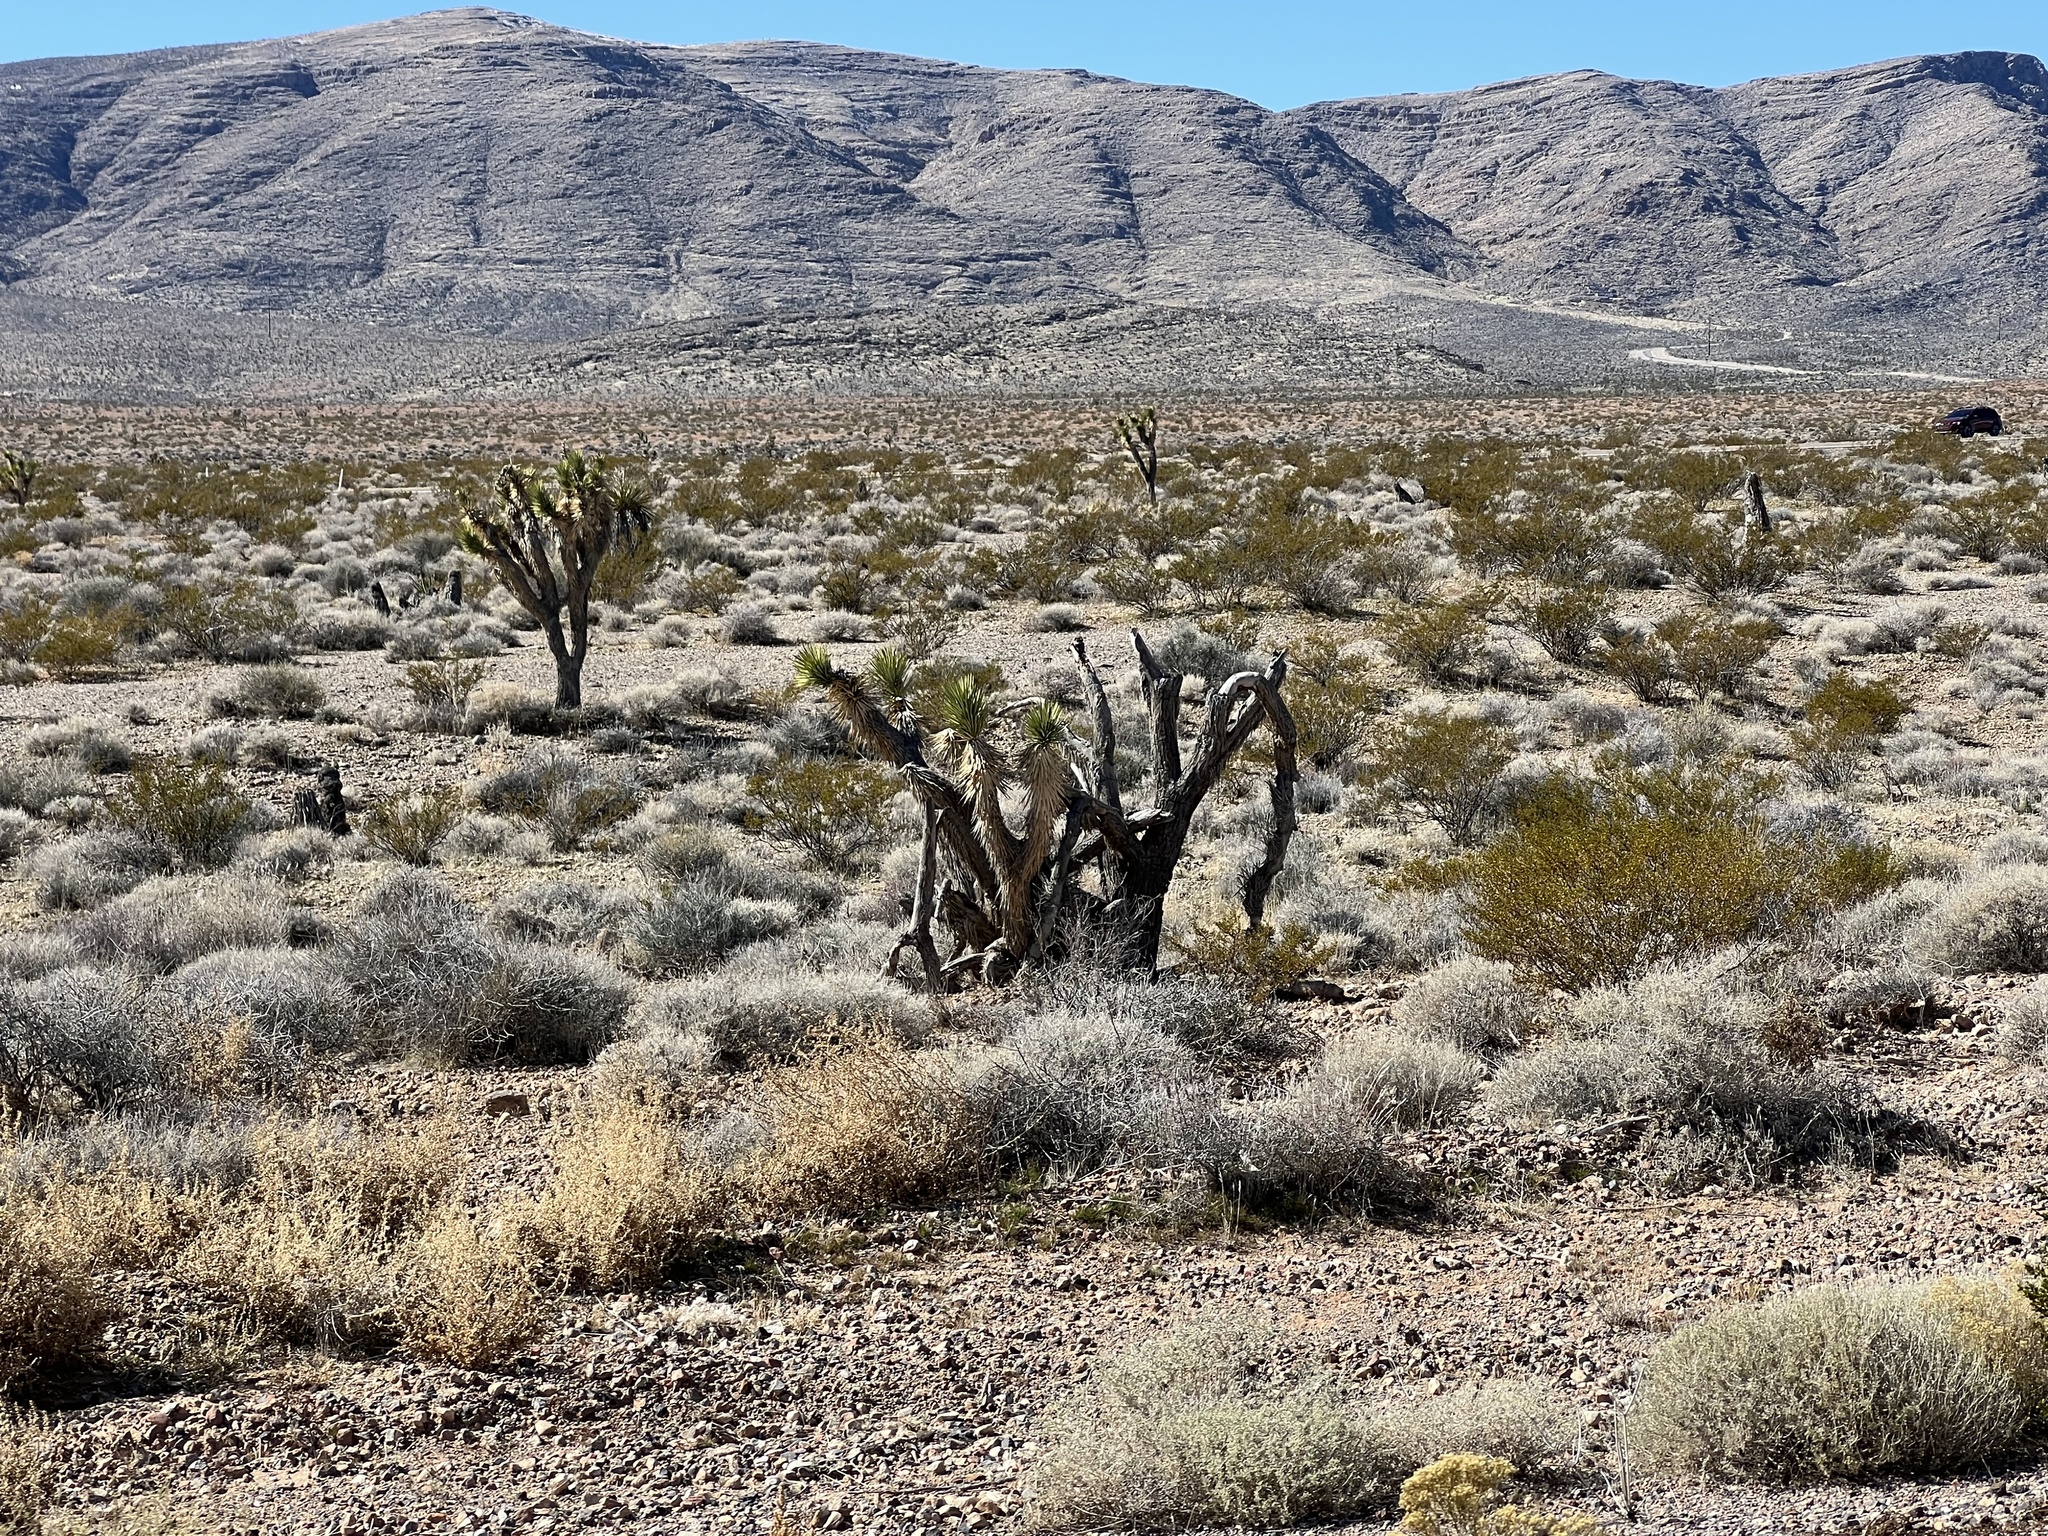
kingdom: Plantae
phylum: Tracheophyta
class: Liliopsida
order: Asparagales
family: Asparagaceae
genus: Yucca
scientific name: Yucca brevifolia
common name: Joshua tree
